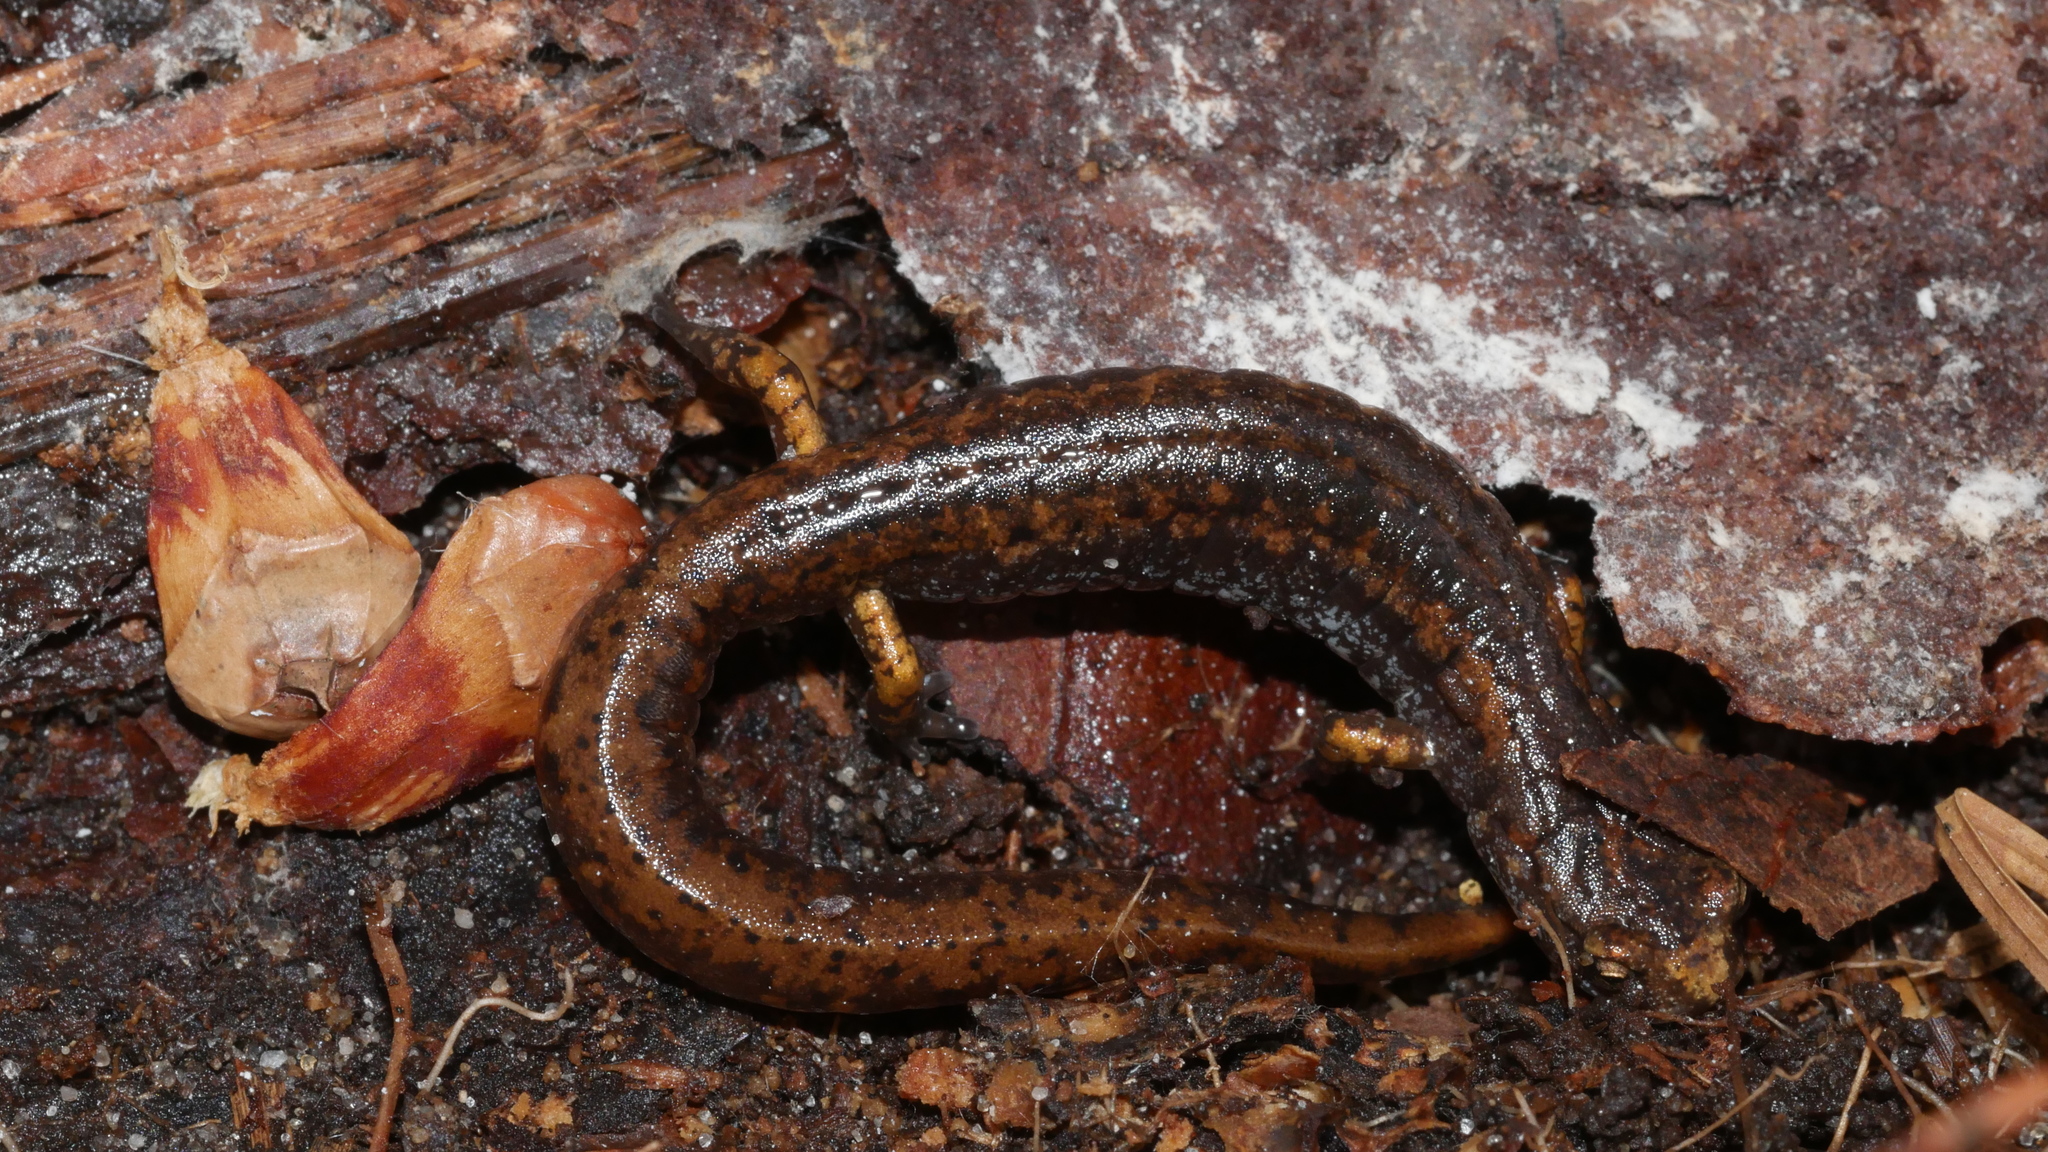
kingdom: Animalia
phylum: Chordata
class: Amphibia
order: Caudata
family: Plethodontidae
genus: Hemidactylium
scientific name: Hemidactylium scutatum
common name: Four-toed salamander
